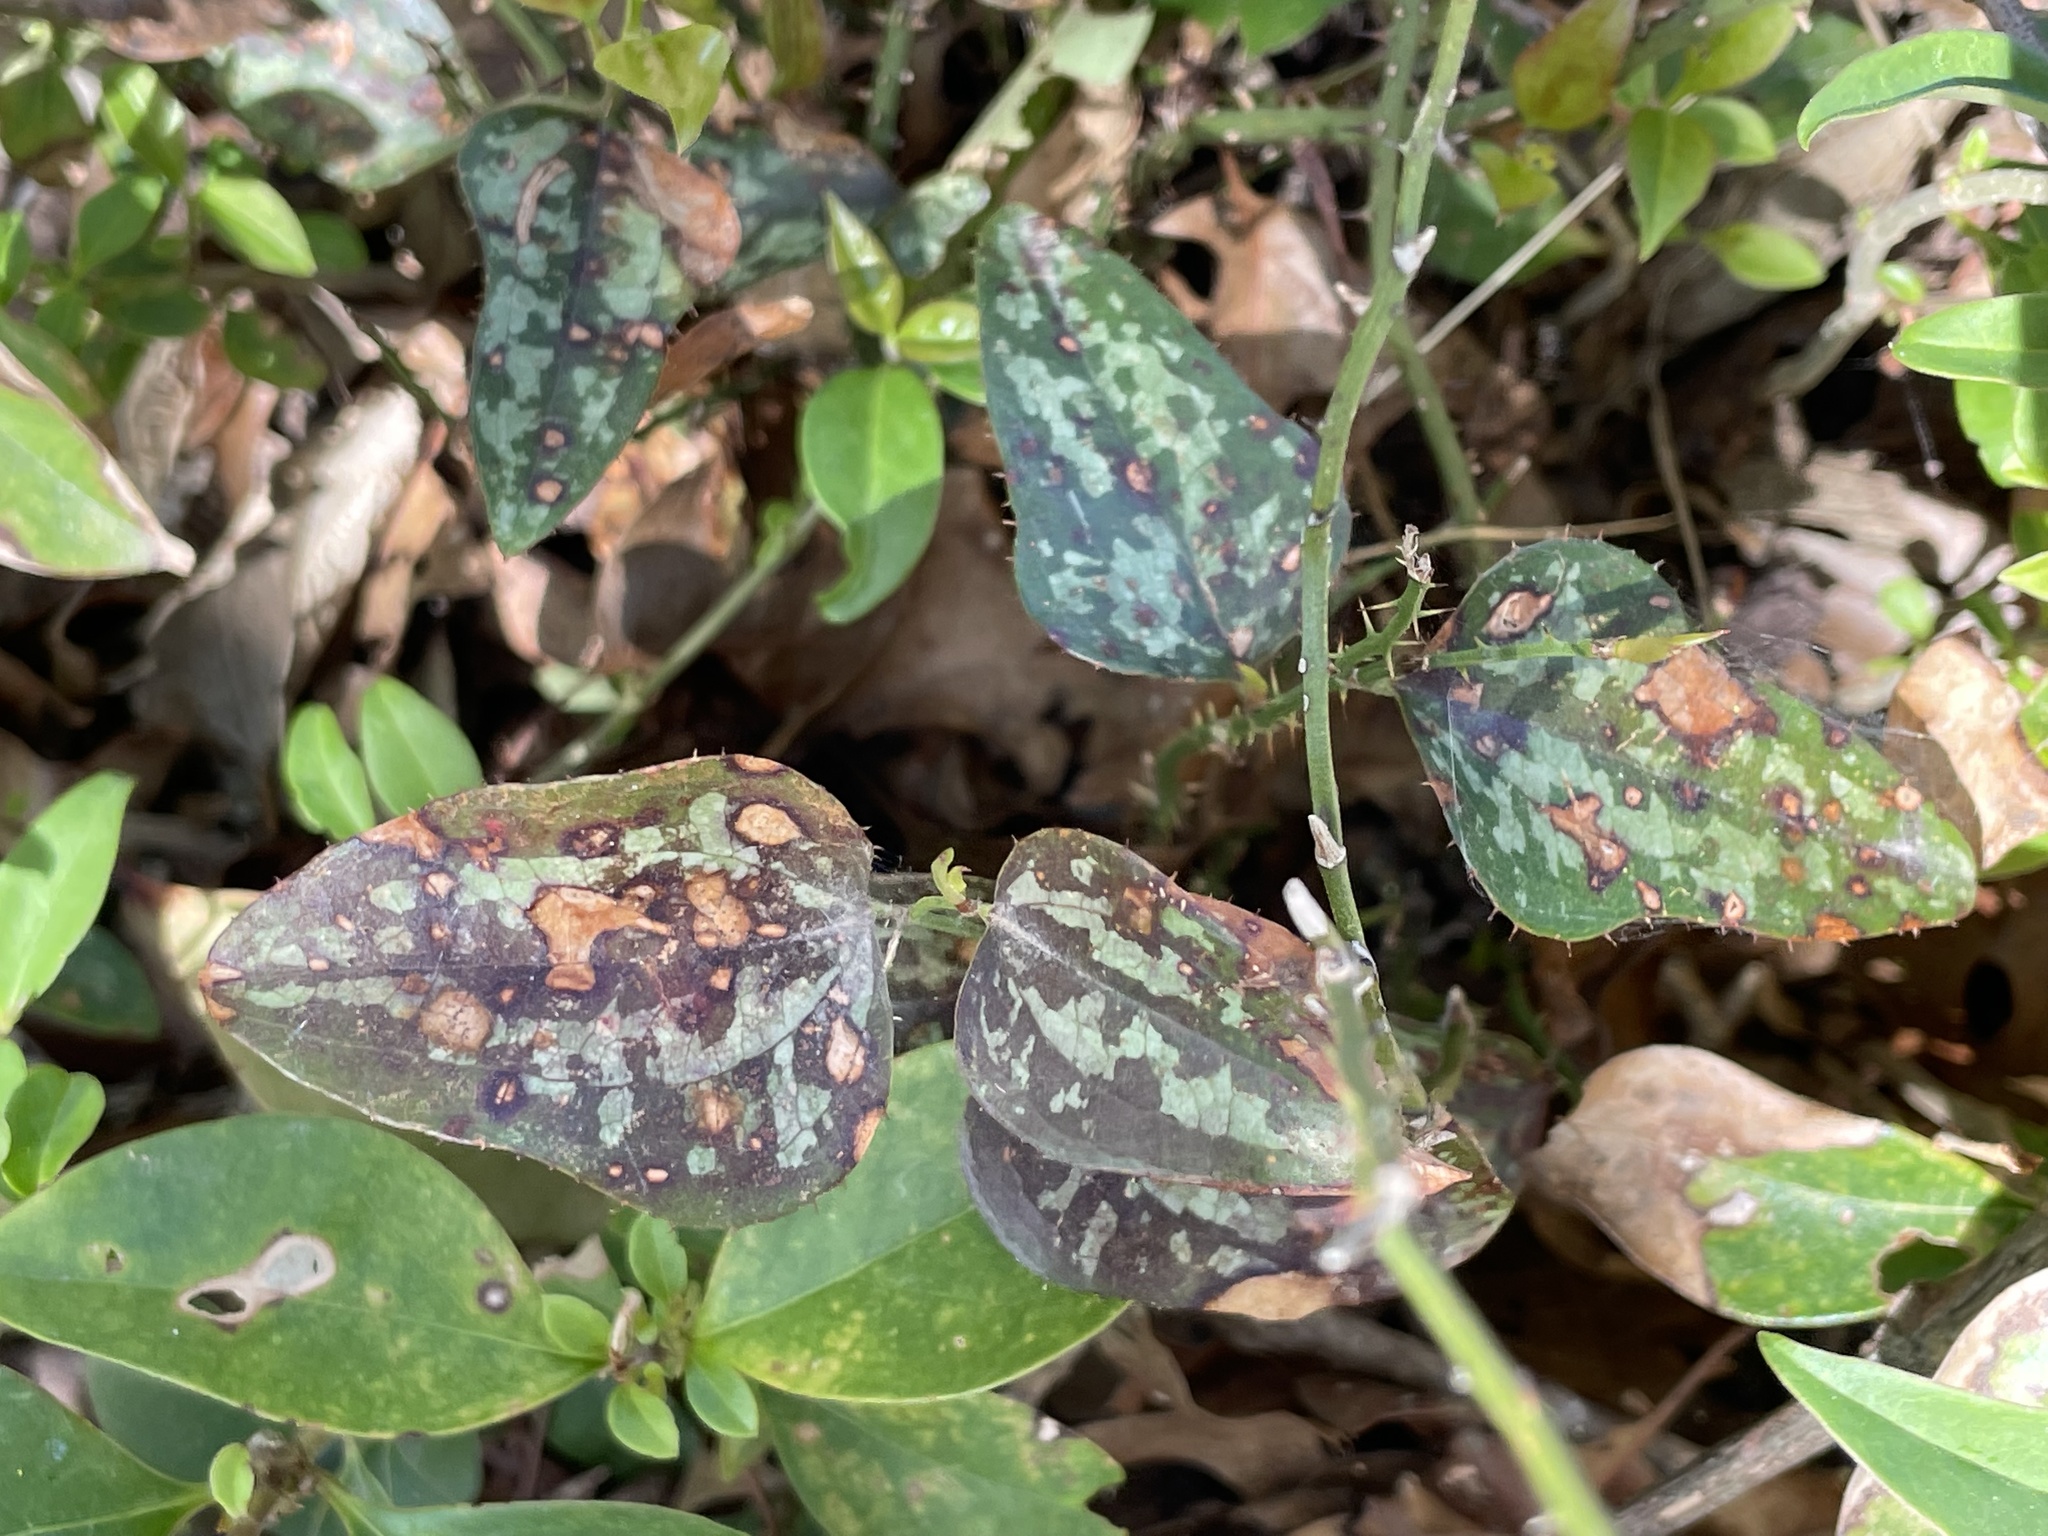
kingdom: Plantae
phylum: Tracheophyta
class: Liliopsida
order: Liliales
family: Smilacaceae
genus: Smilax
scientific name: Smilax bona-nox
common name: Catbrier
